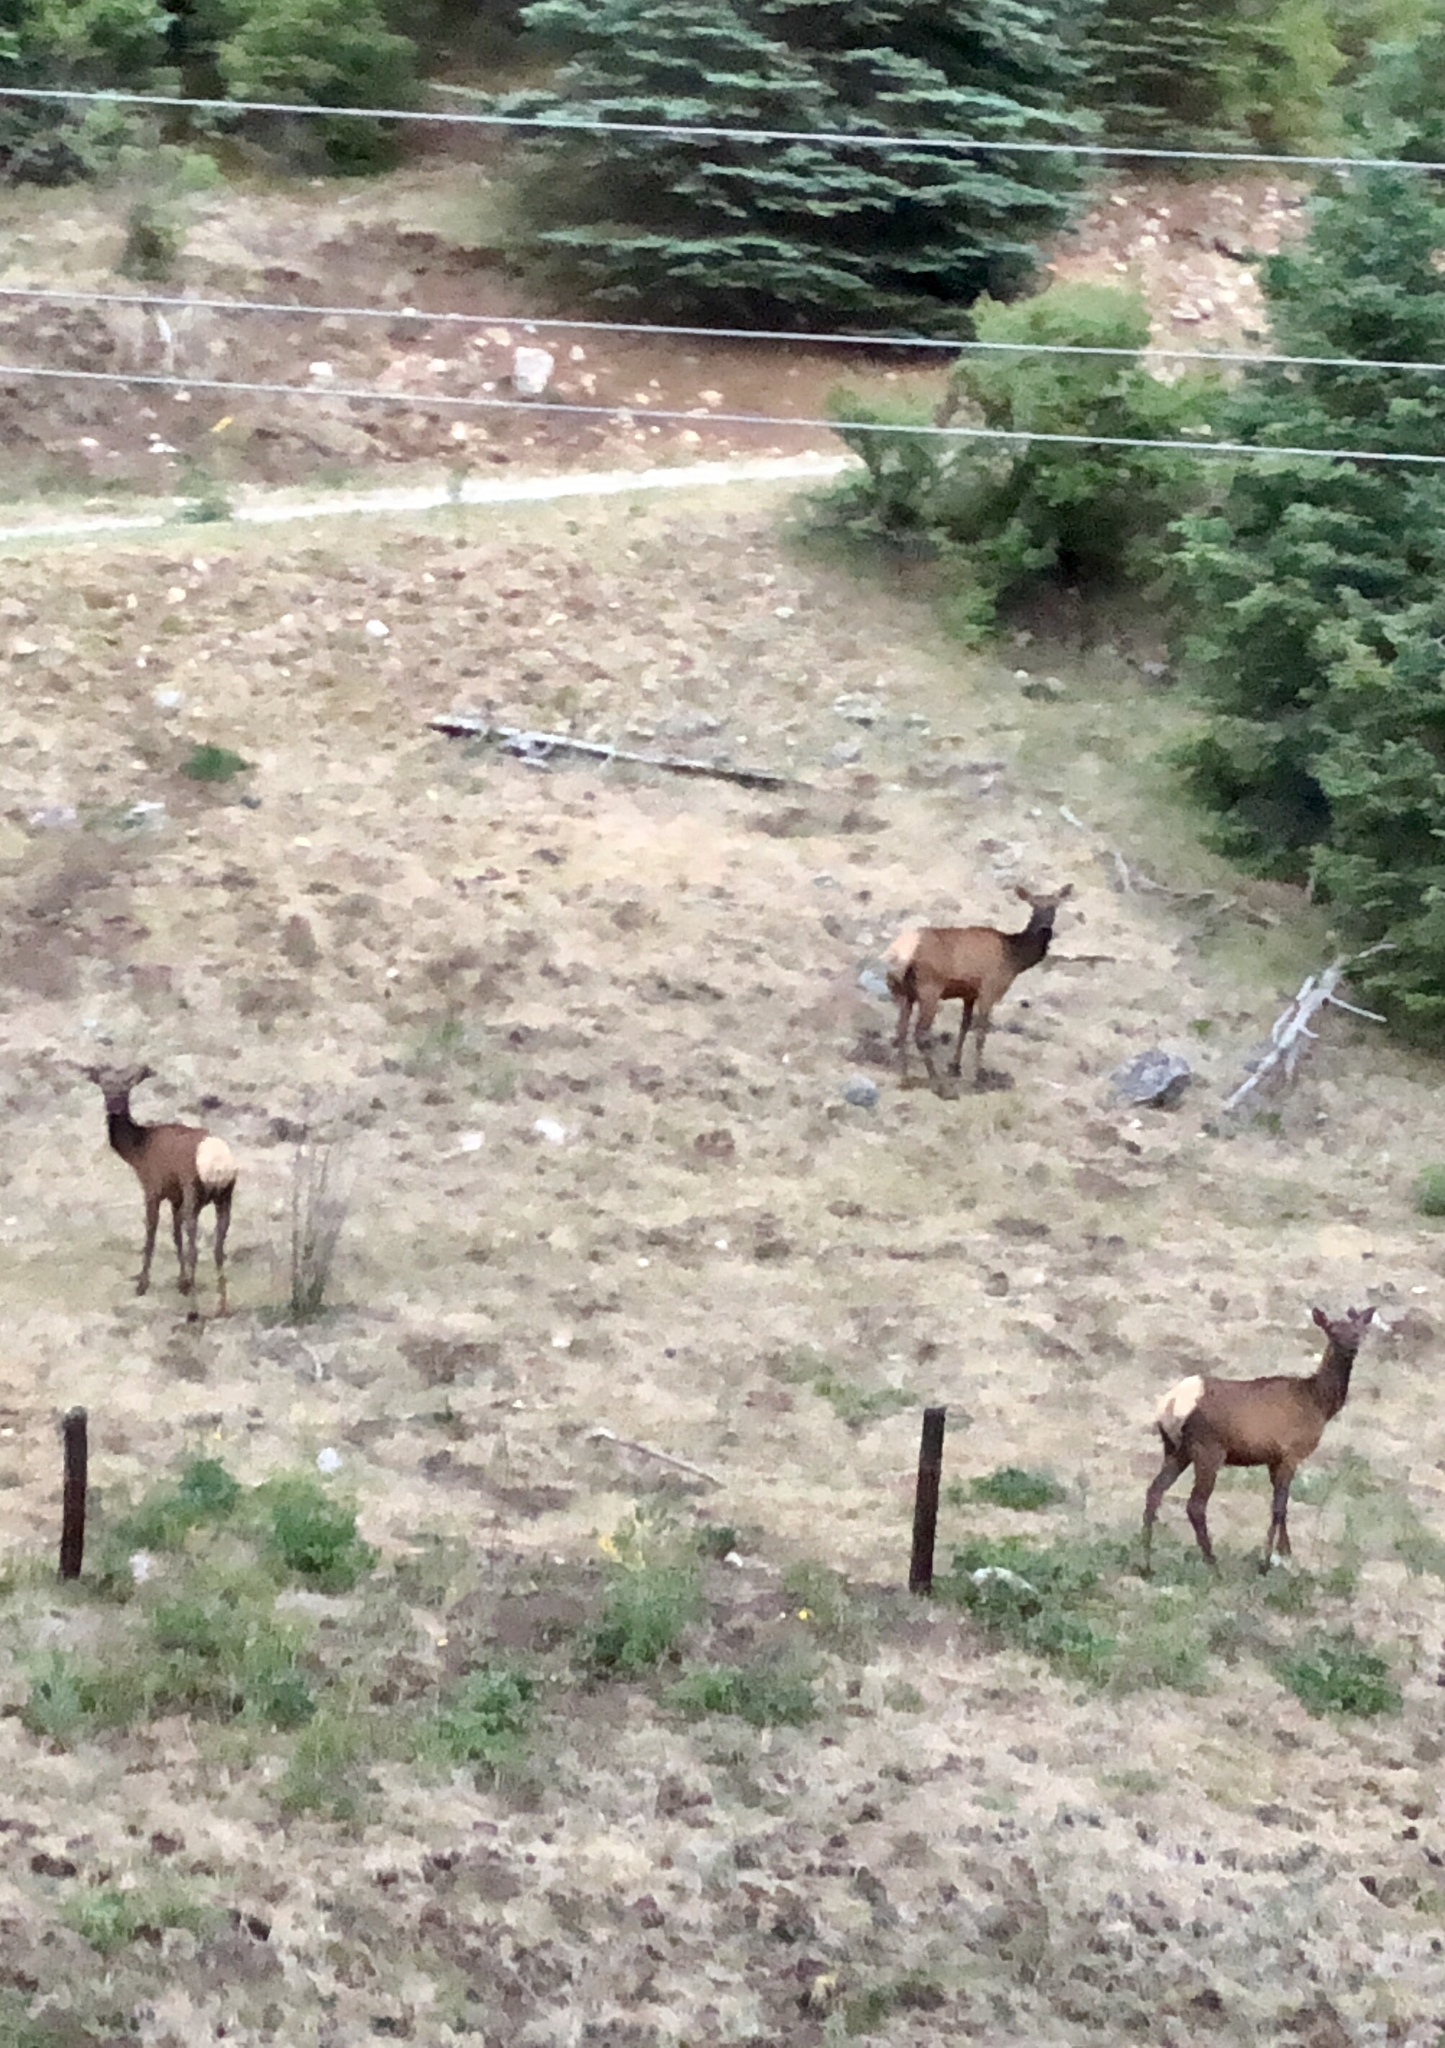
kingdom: Animalia
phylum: Chordata
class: Mammalia
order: Artiodactyla
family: Cervidae
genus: Cervus
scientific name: Cervus elaphus
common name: Red deer
